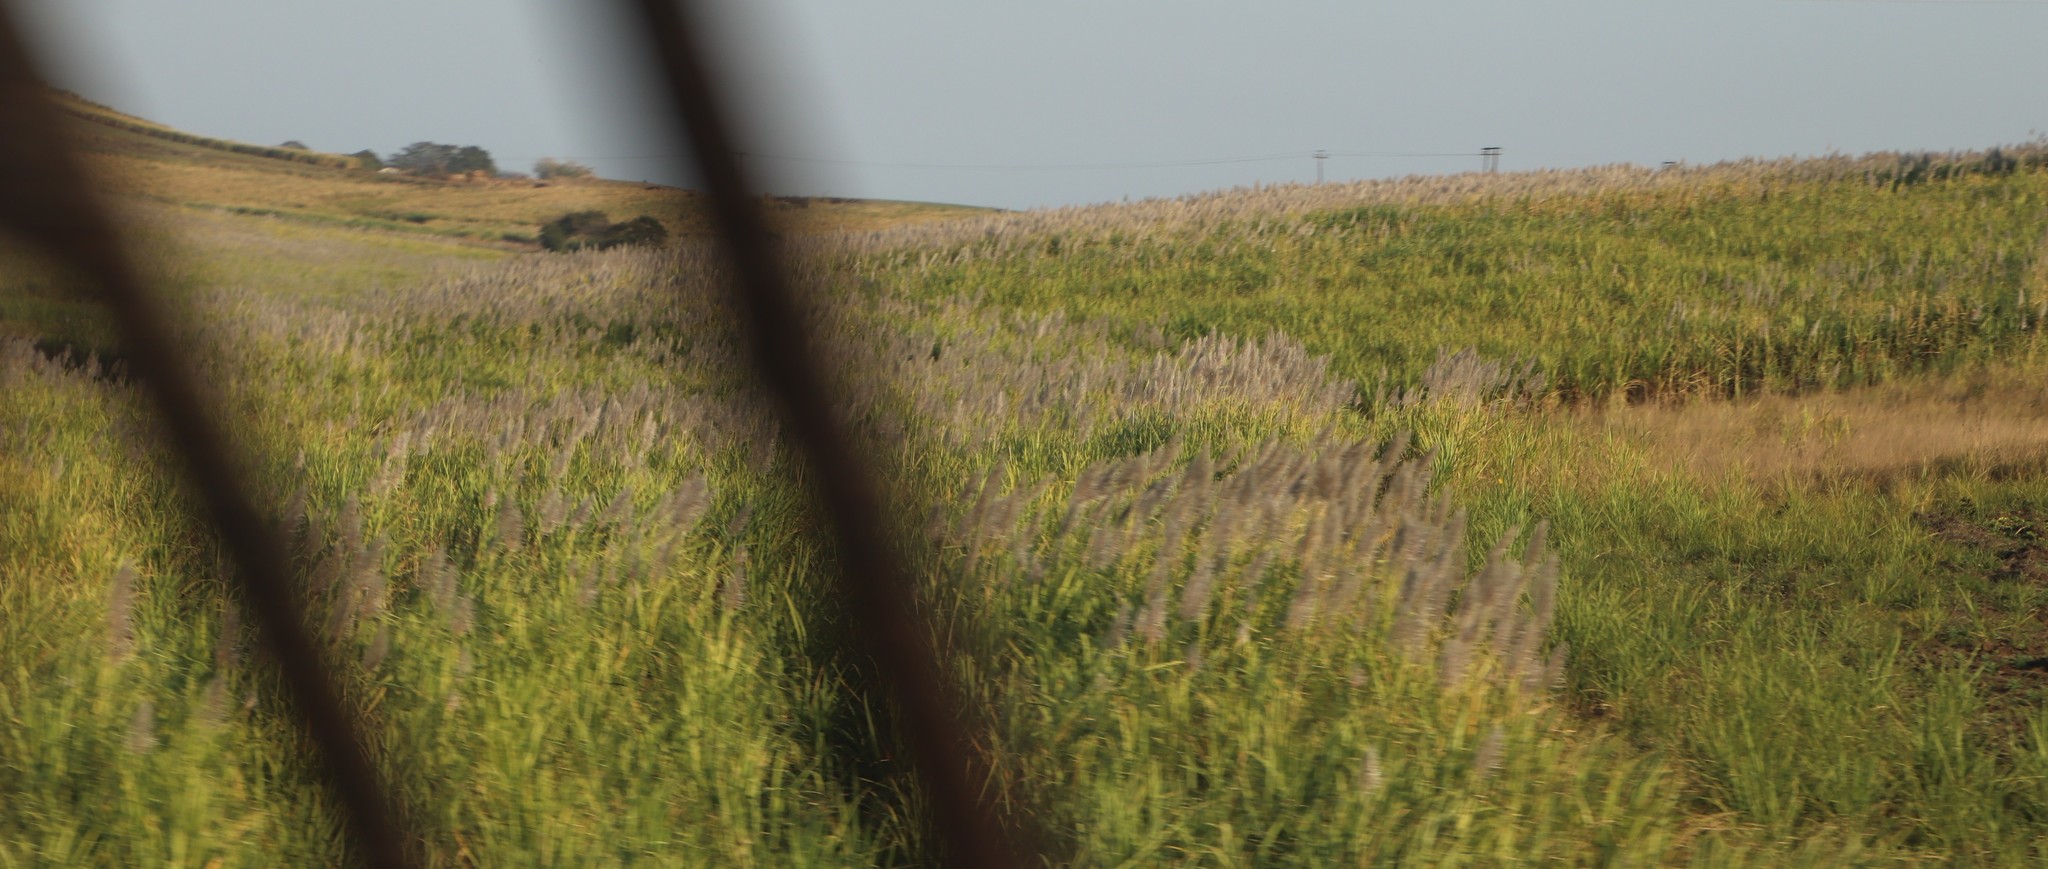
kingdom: Plantae
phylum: Tracheophyta
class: Liliopsida
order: Poales
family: Poaceae
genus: Saccharum
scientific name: Saccharum officinarum
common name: Sugarcane
